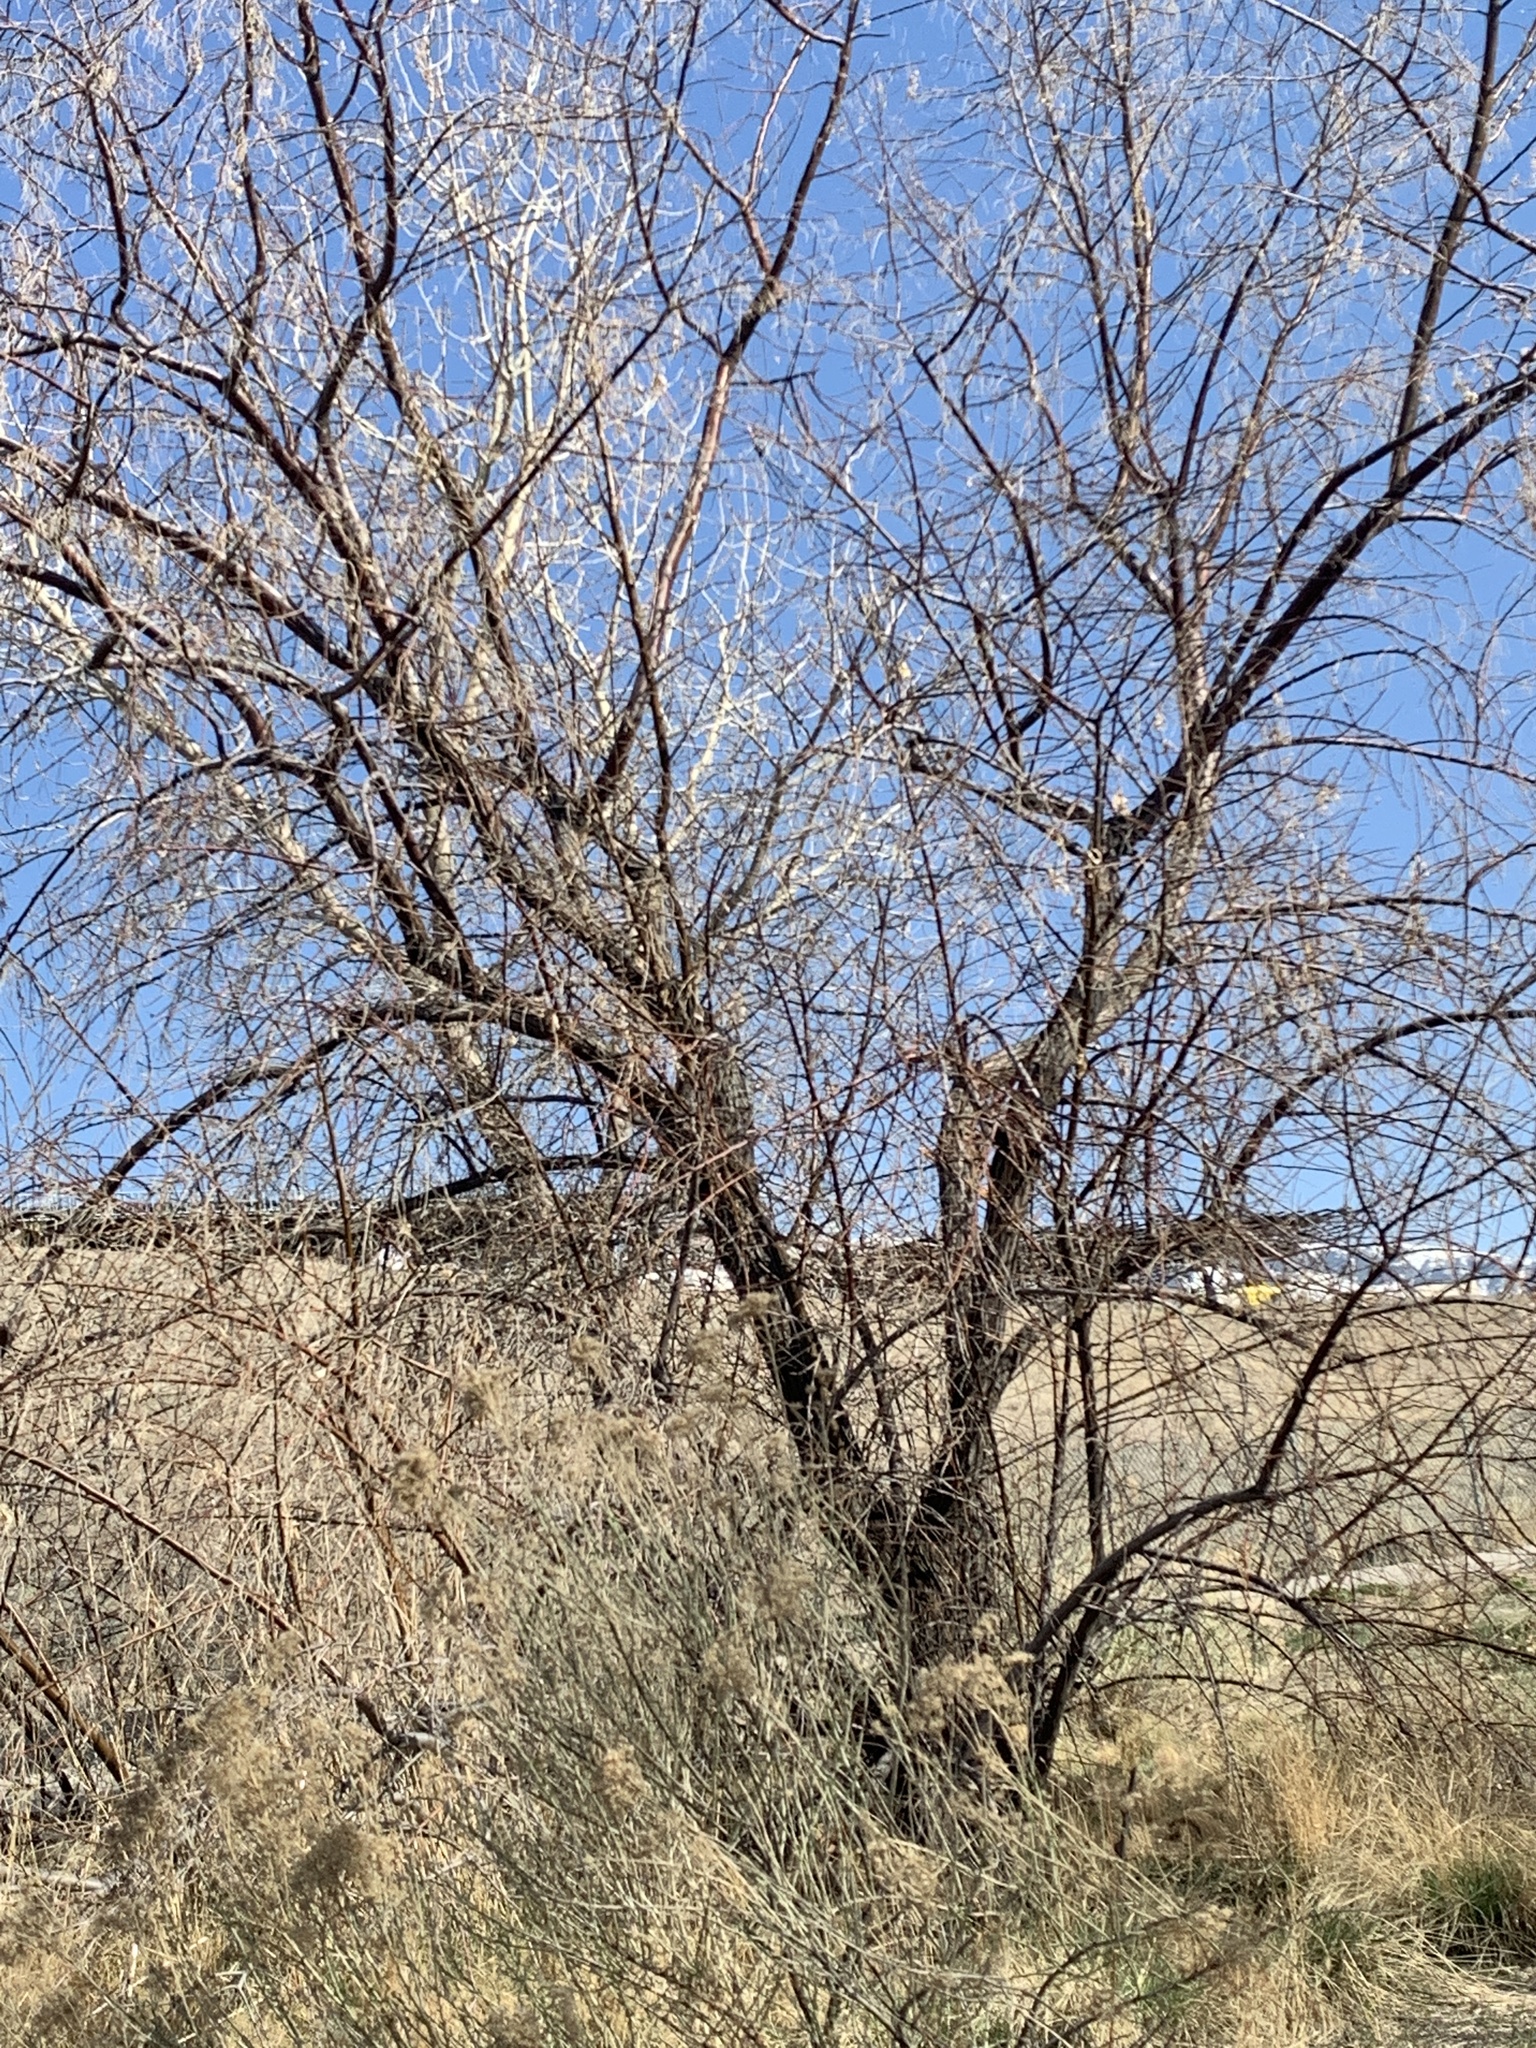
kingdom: Plantae
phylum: Tracheophyta
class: Magnoliopsida
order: Rosales
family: Elaeagnaceae
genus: Elaeagnus
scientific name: Elaeagnus angustifolia
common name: Russian olive
